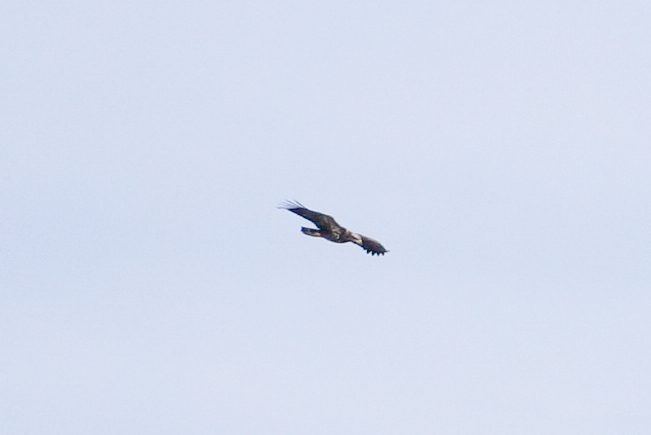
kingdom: Animalia
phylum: Chordata
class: Aves
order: Accipitriformes
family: Accipitridae
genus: Haliaeetus
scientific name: Haliaeetus leucocephalus
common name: Bald eagle
